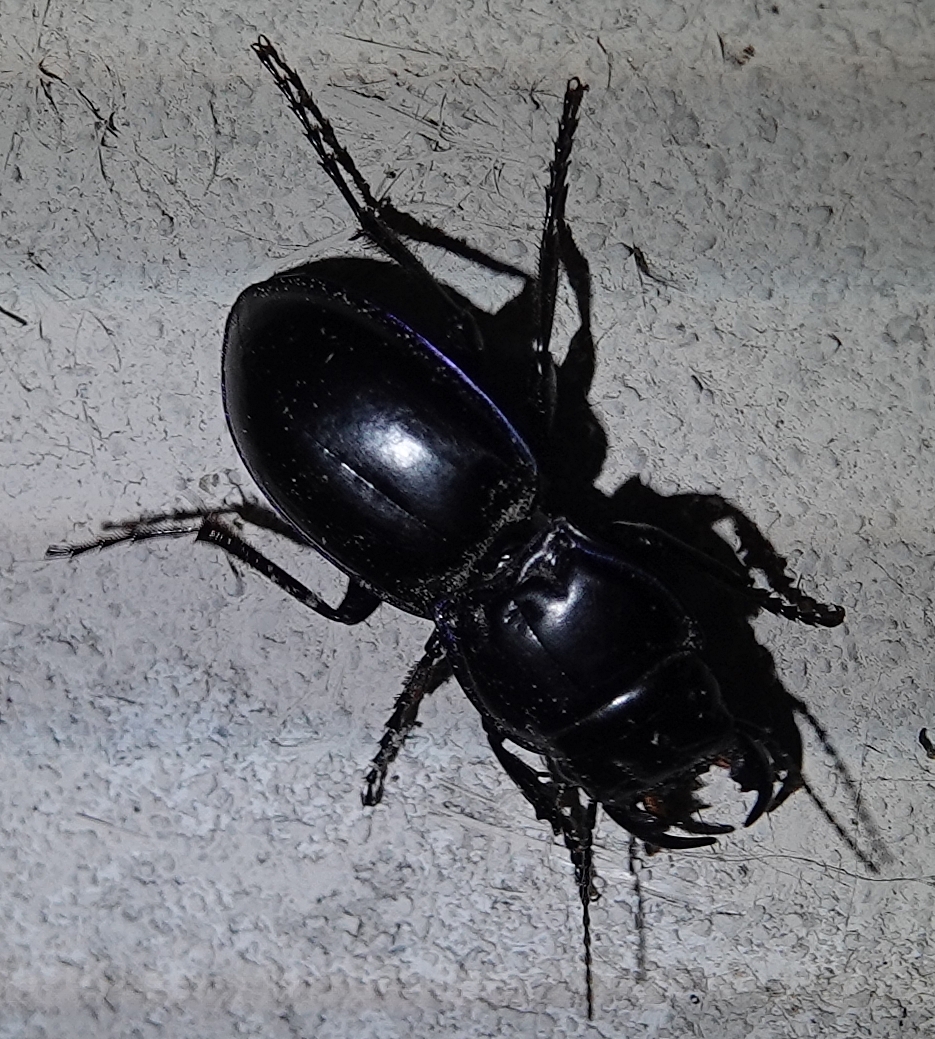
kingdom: Animalia
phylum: Arthropoda
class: Insecta
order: Coleoptera
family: Carabidae
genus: Pasimachus
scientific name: Pasimachus elongatus
